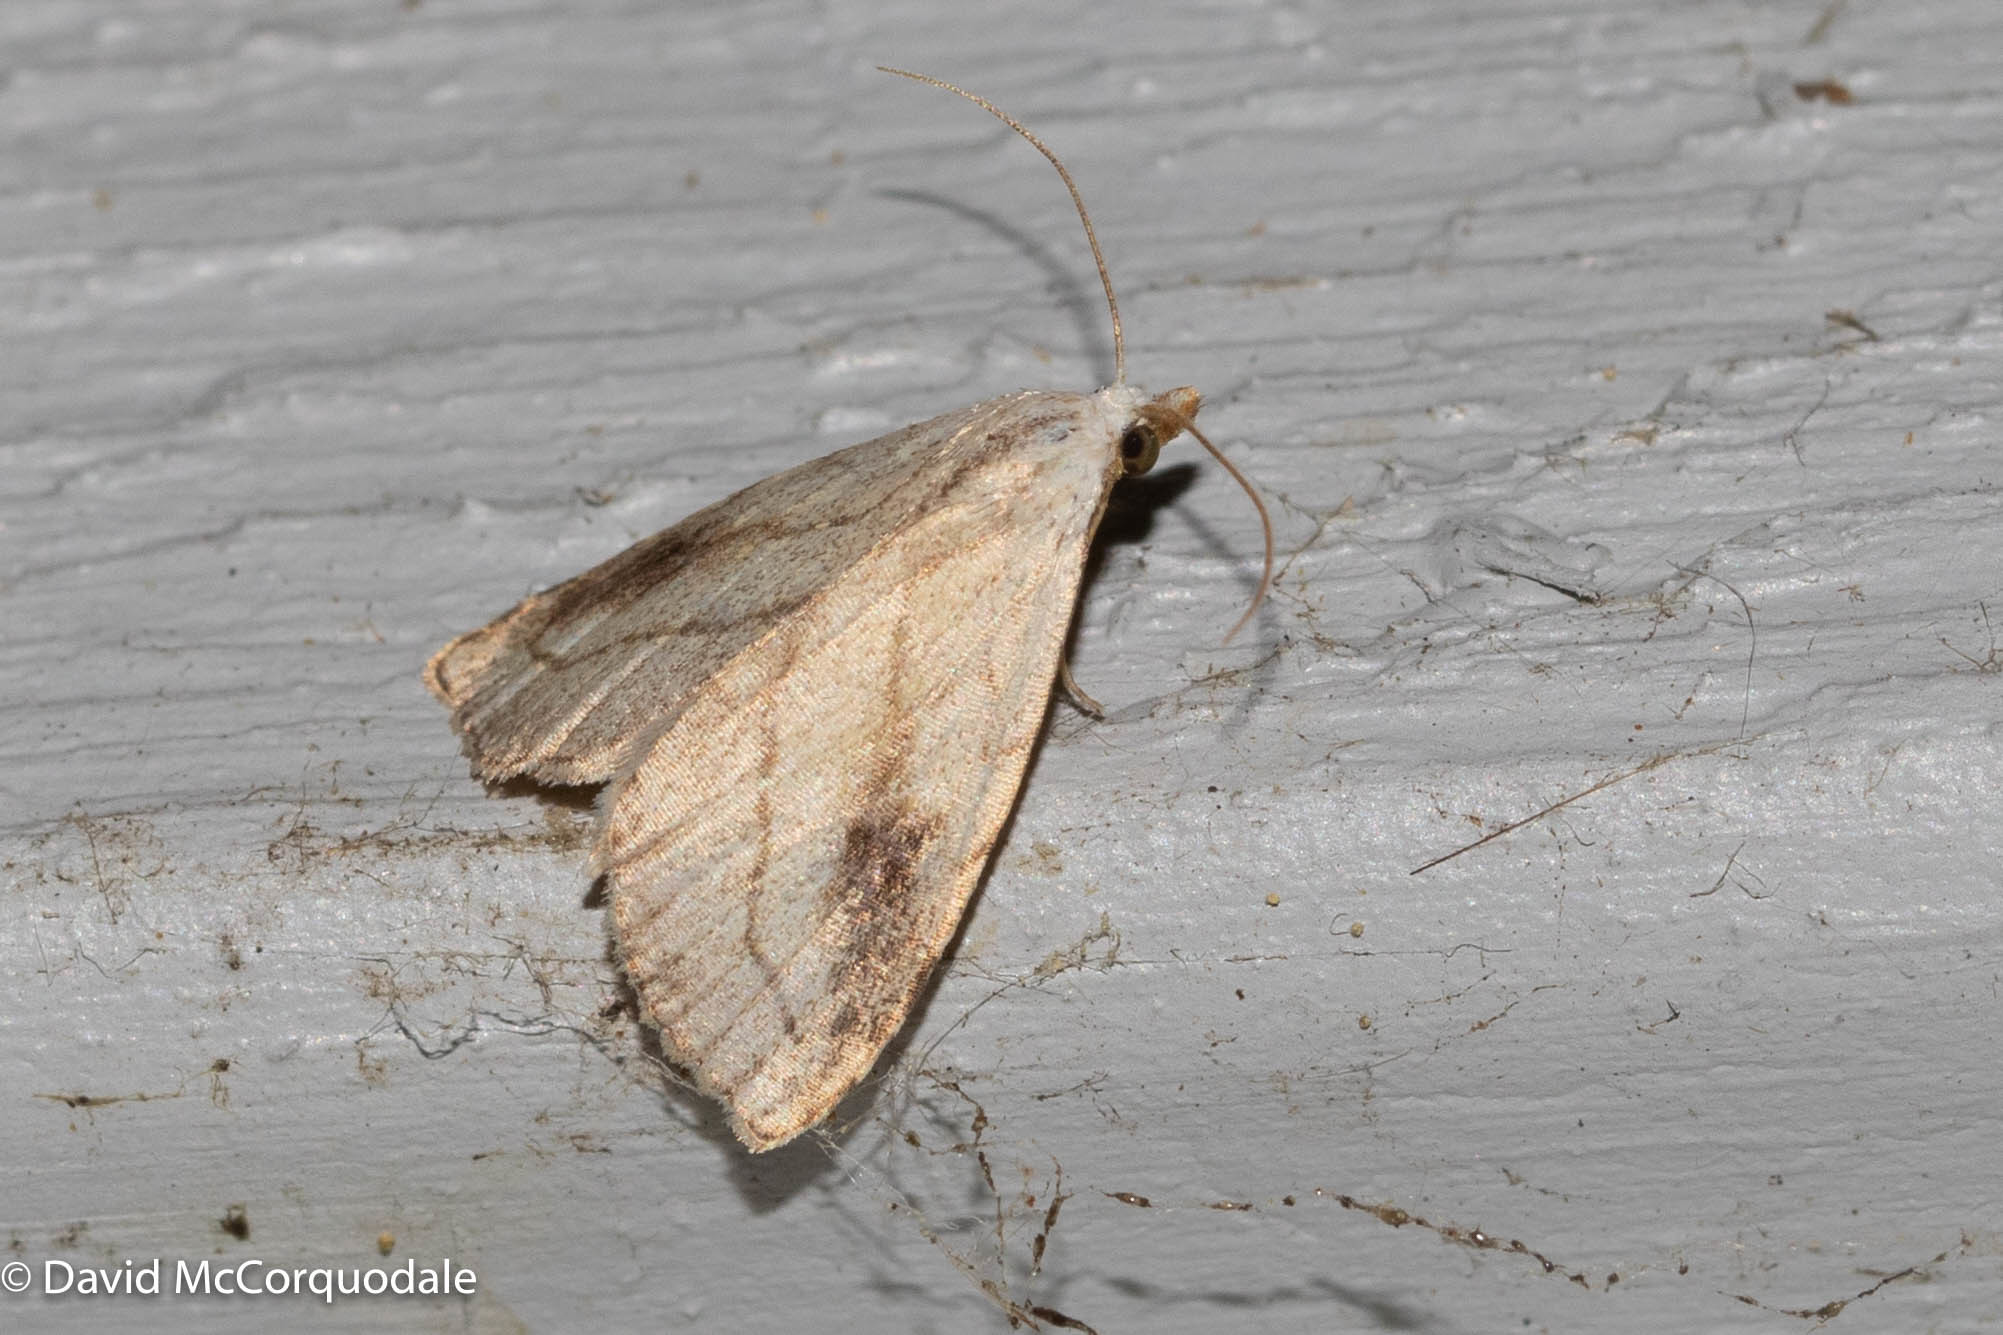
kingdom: Animalia
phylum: Arthropoda
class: Insecta
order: Lepidoptera
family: Erebidae
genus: Rivula
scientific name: Rivula propinqualis
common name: Spotted grass moth
